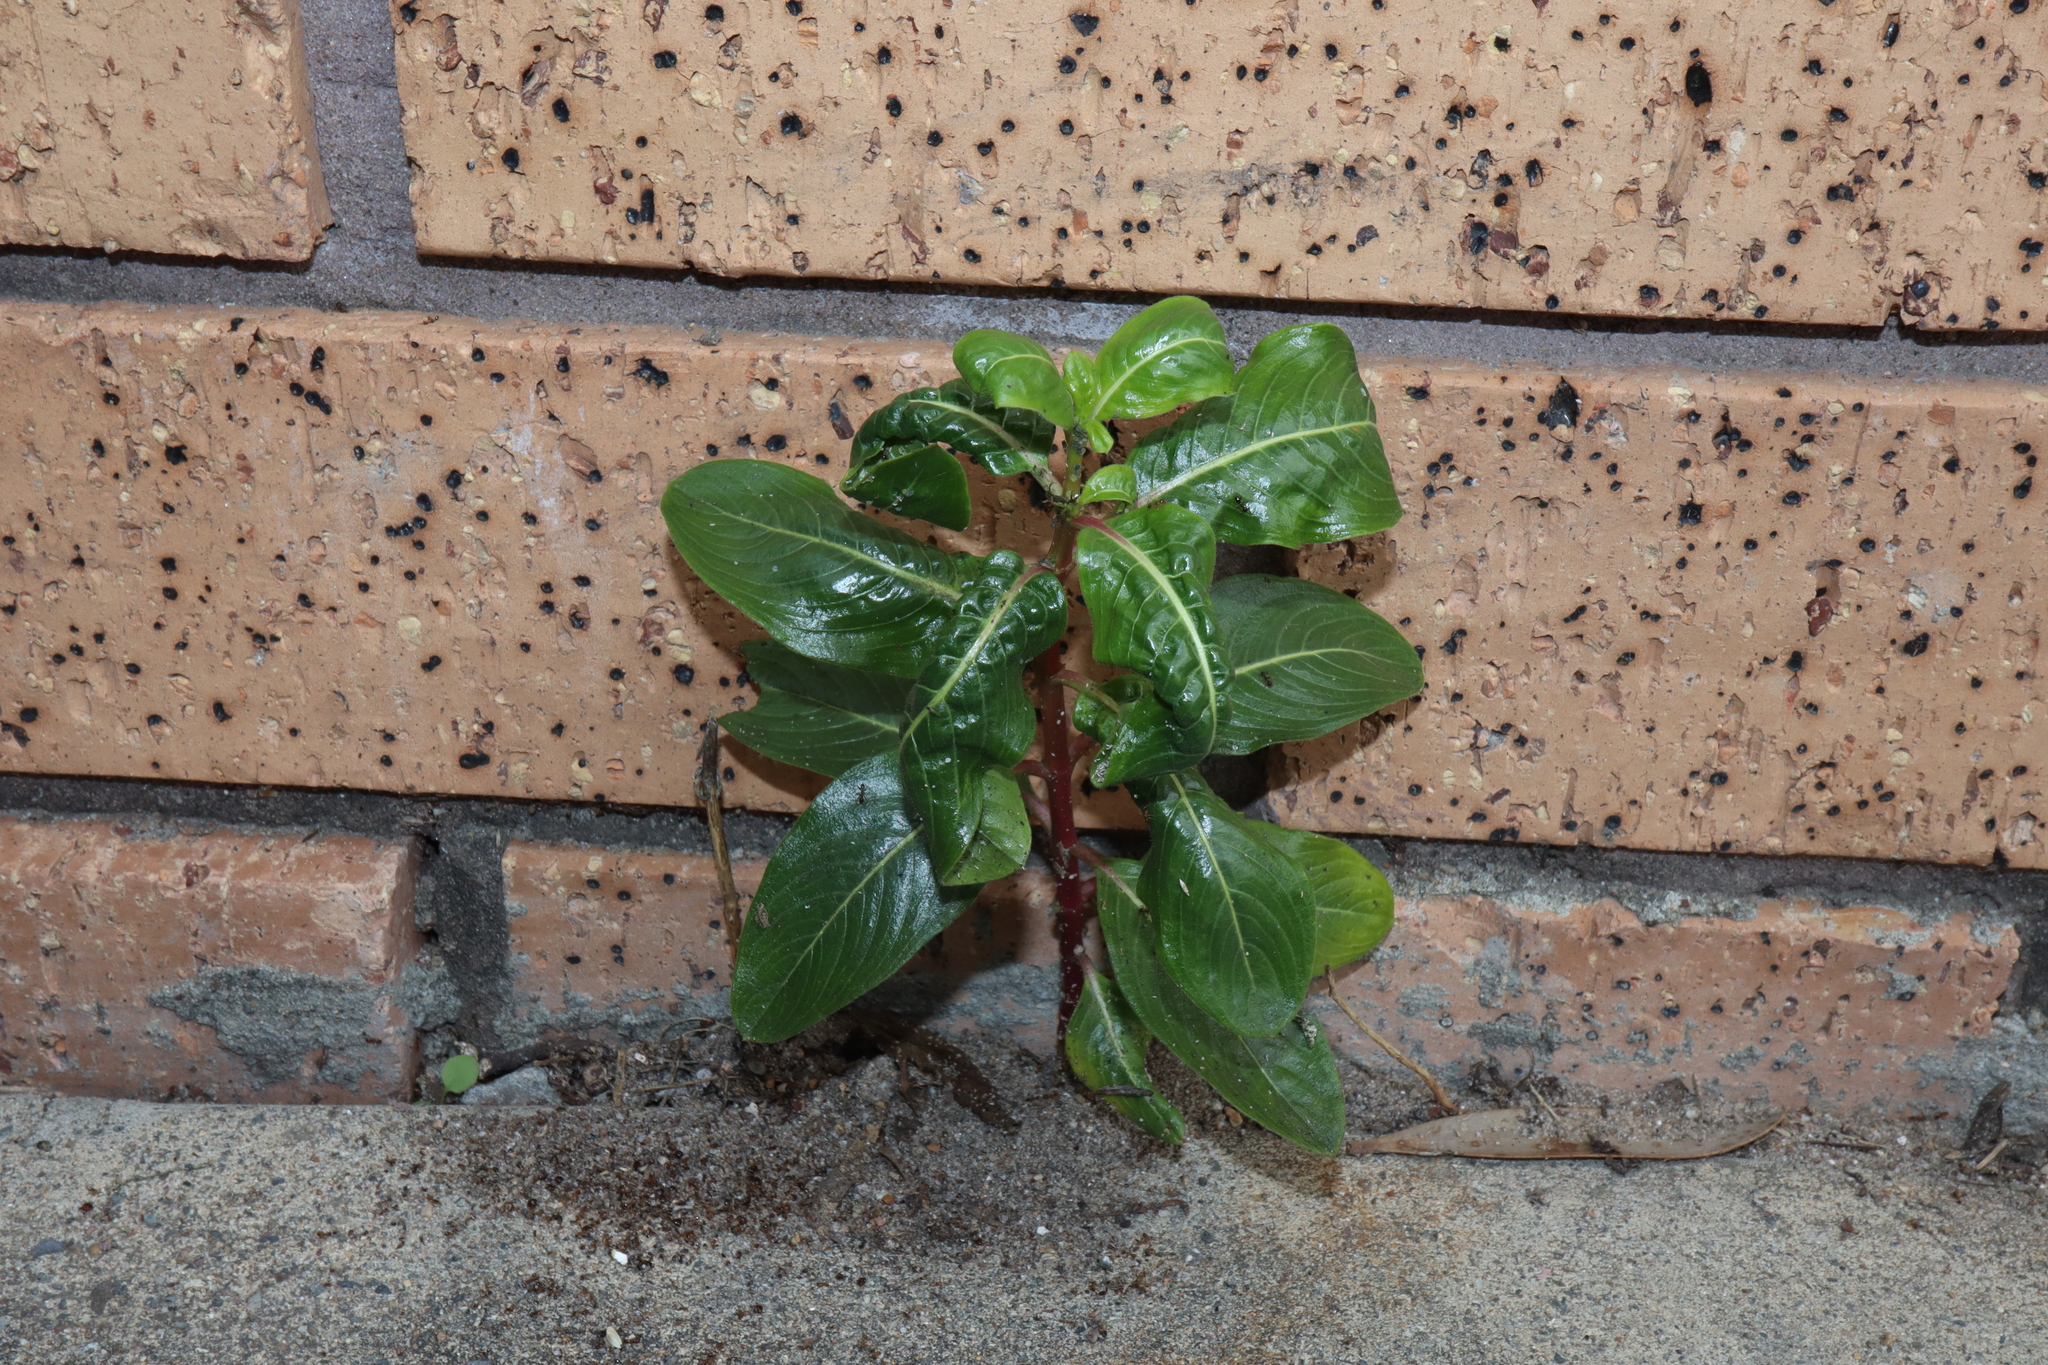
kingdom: Plantae
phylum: Tracheophyta
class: Magnoliopsida
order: Gentianales
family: Apocynaceae
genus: Catharanthus
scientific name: Catharanthus roseus
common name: Madagascar periwinkle
